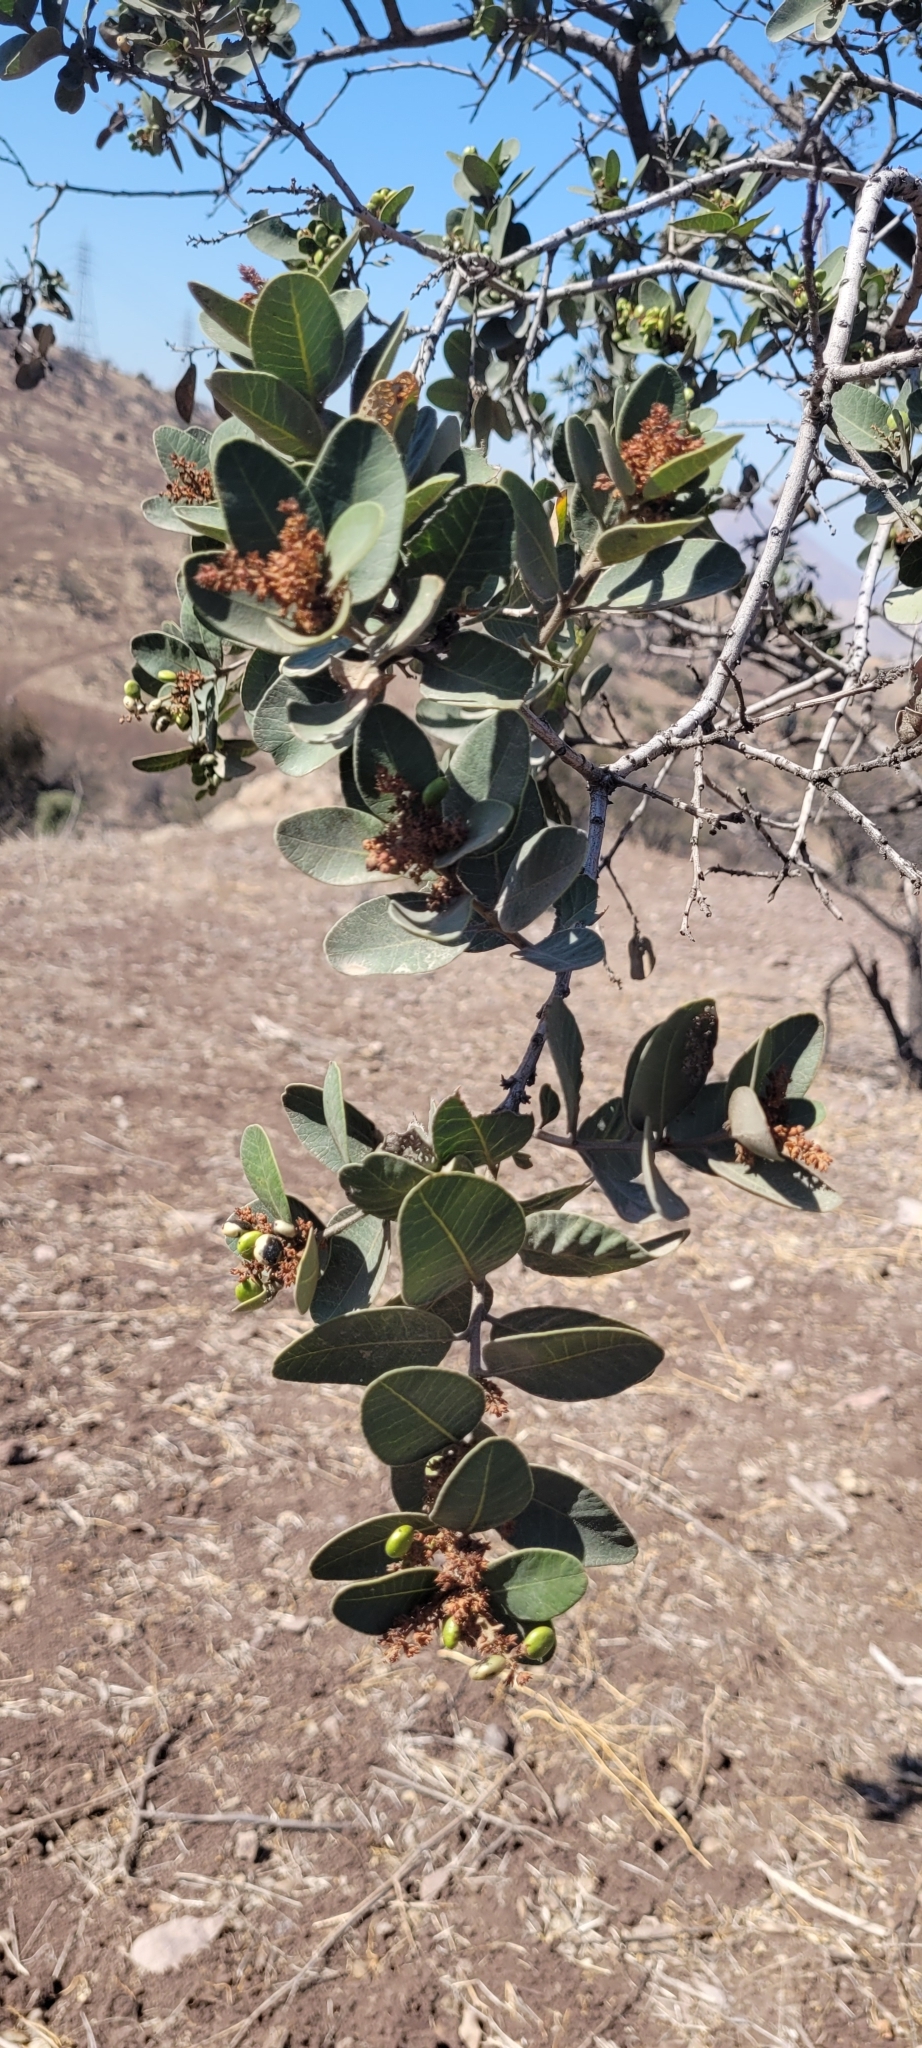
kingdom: Plantae
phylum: Tracheophyta
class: Magnoliopsida
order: Sapindales
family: Anacardiaceae
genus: Lithraea
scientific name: Lithraea caustica
